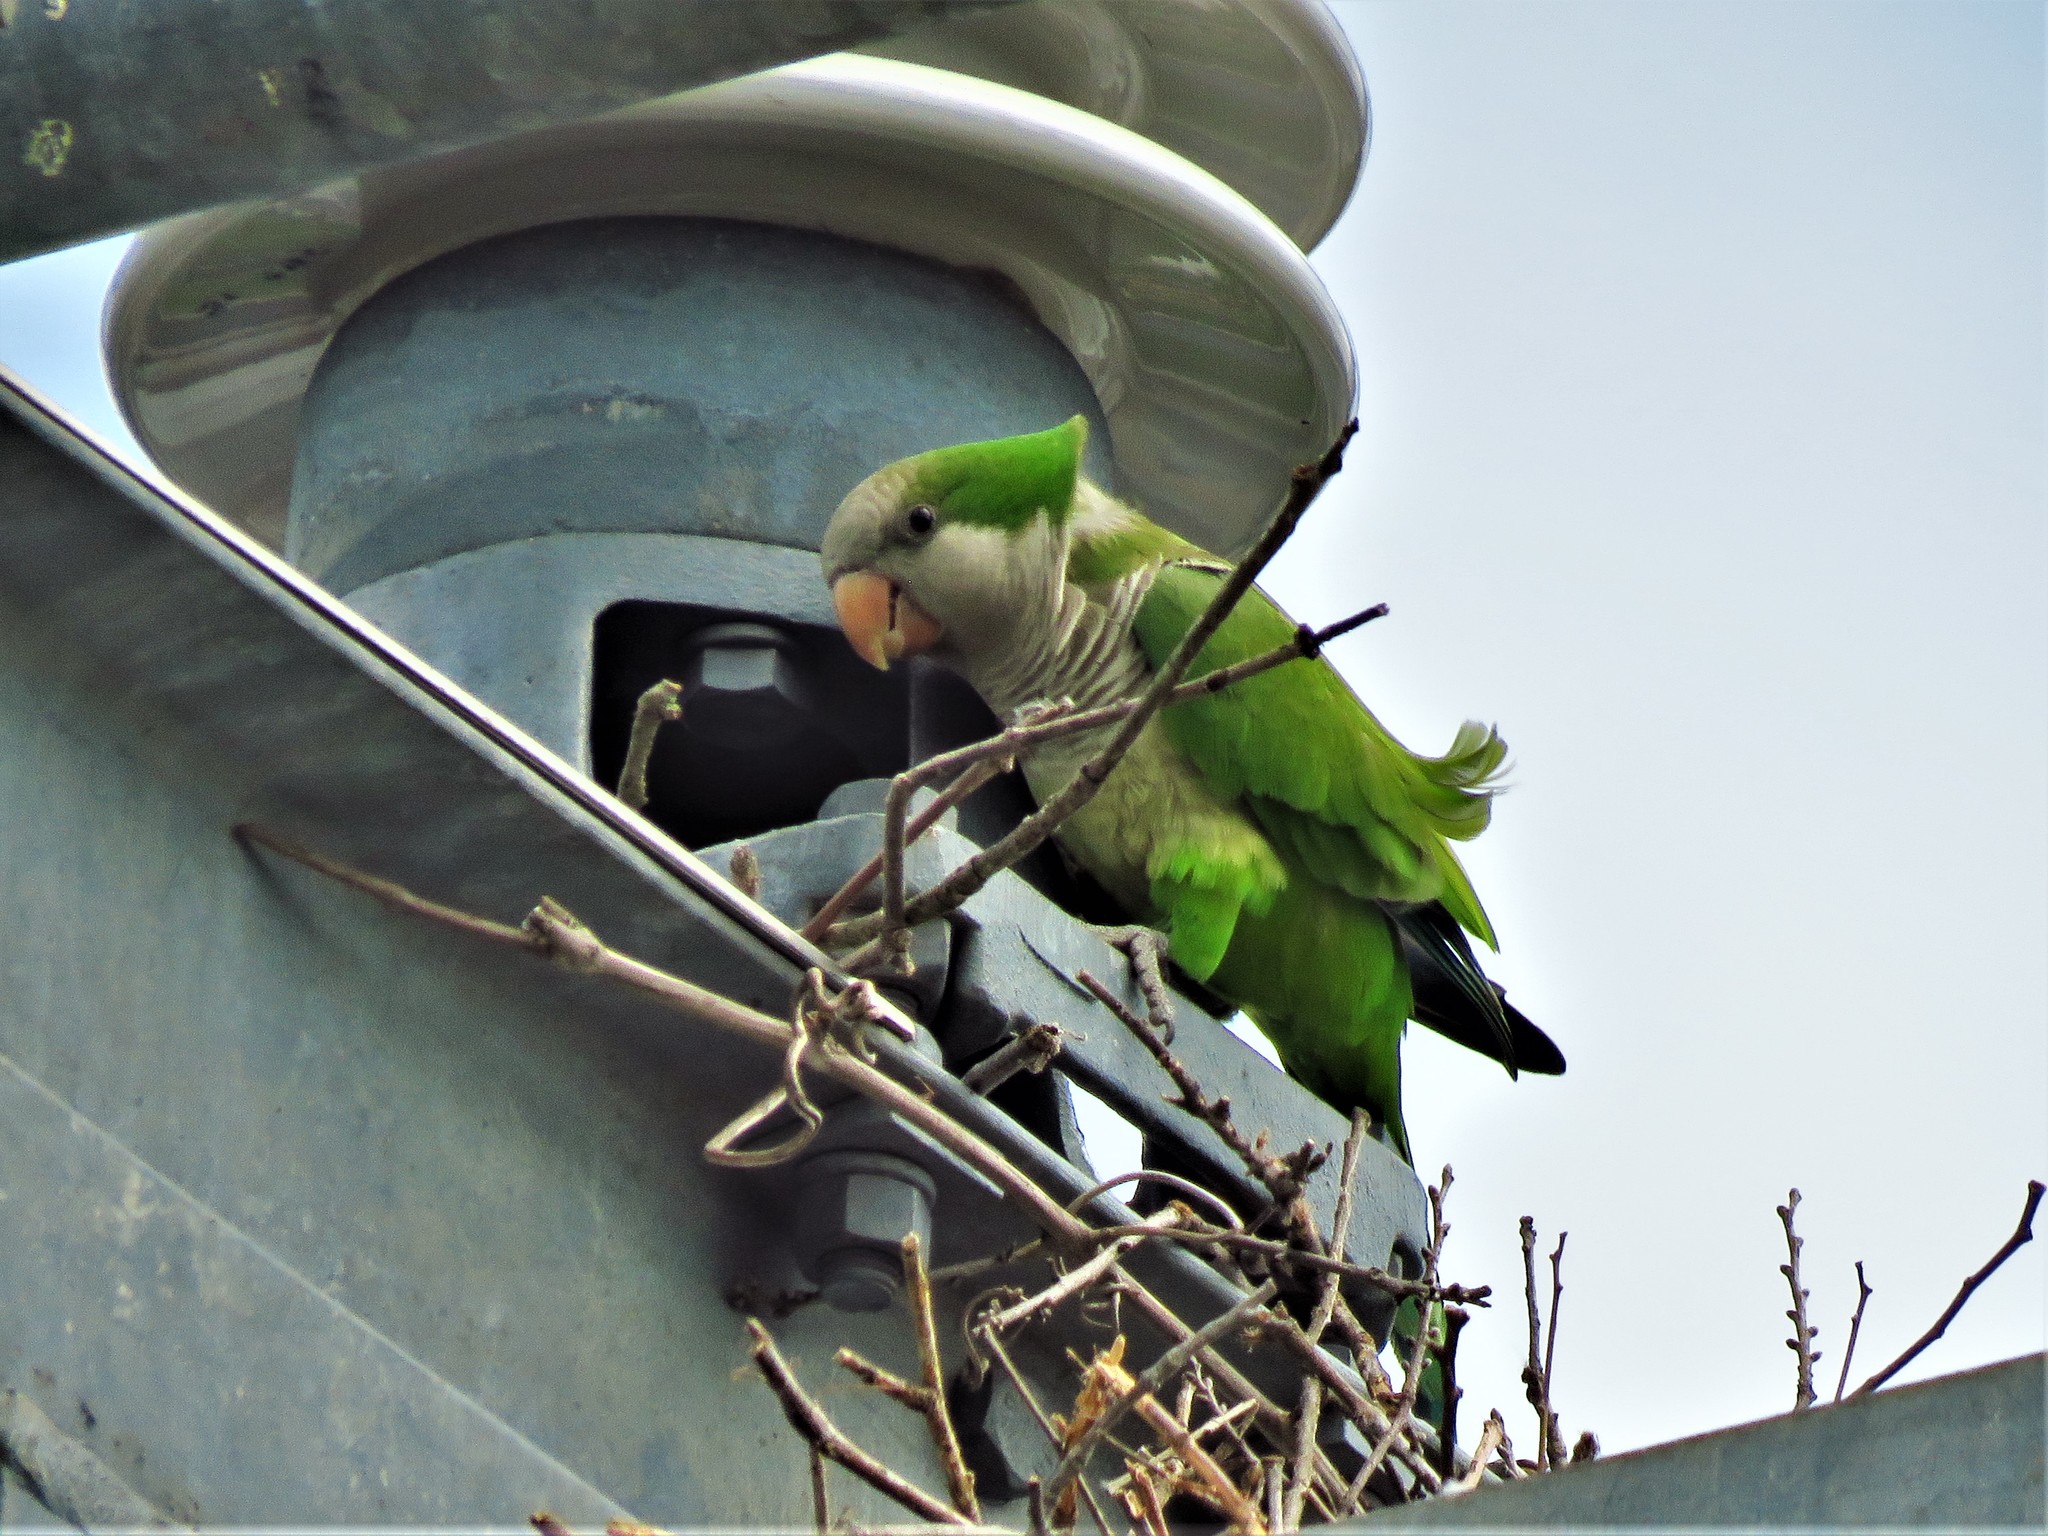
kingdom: Animalia
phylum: Chordata
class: Aves
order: Psittaciformes
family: Psittacidae
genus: Myiopsitta
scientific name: Myiopsitta monachus
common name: Monk parakeet
